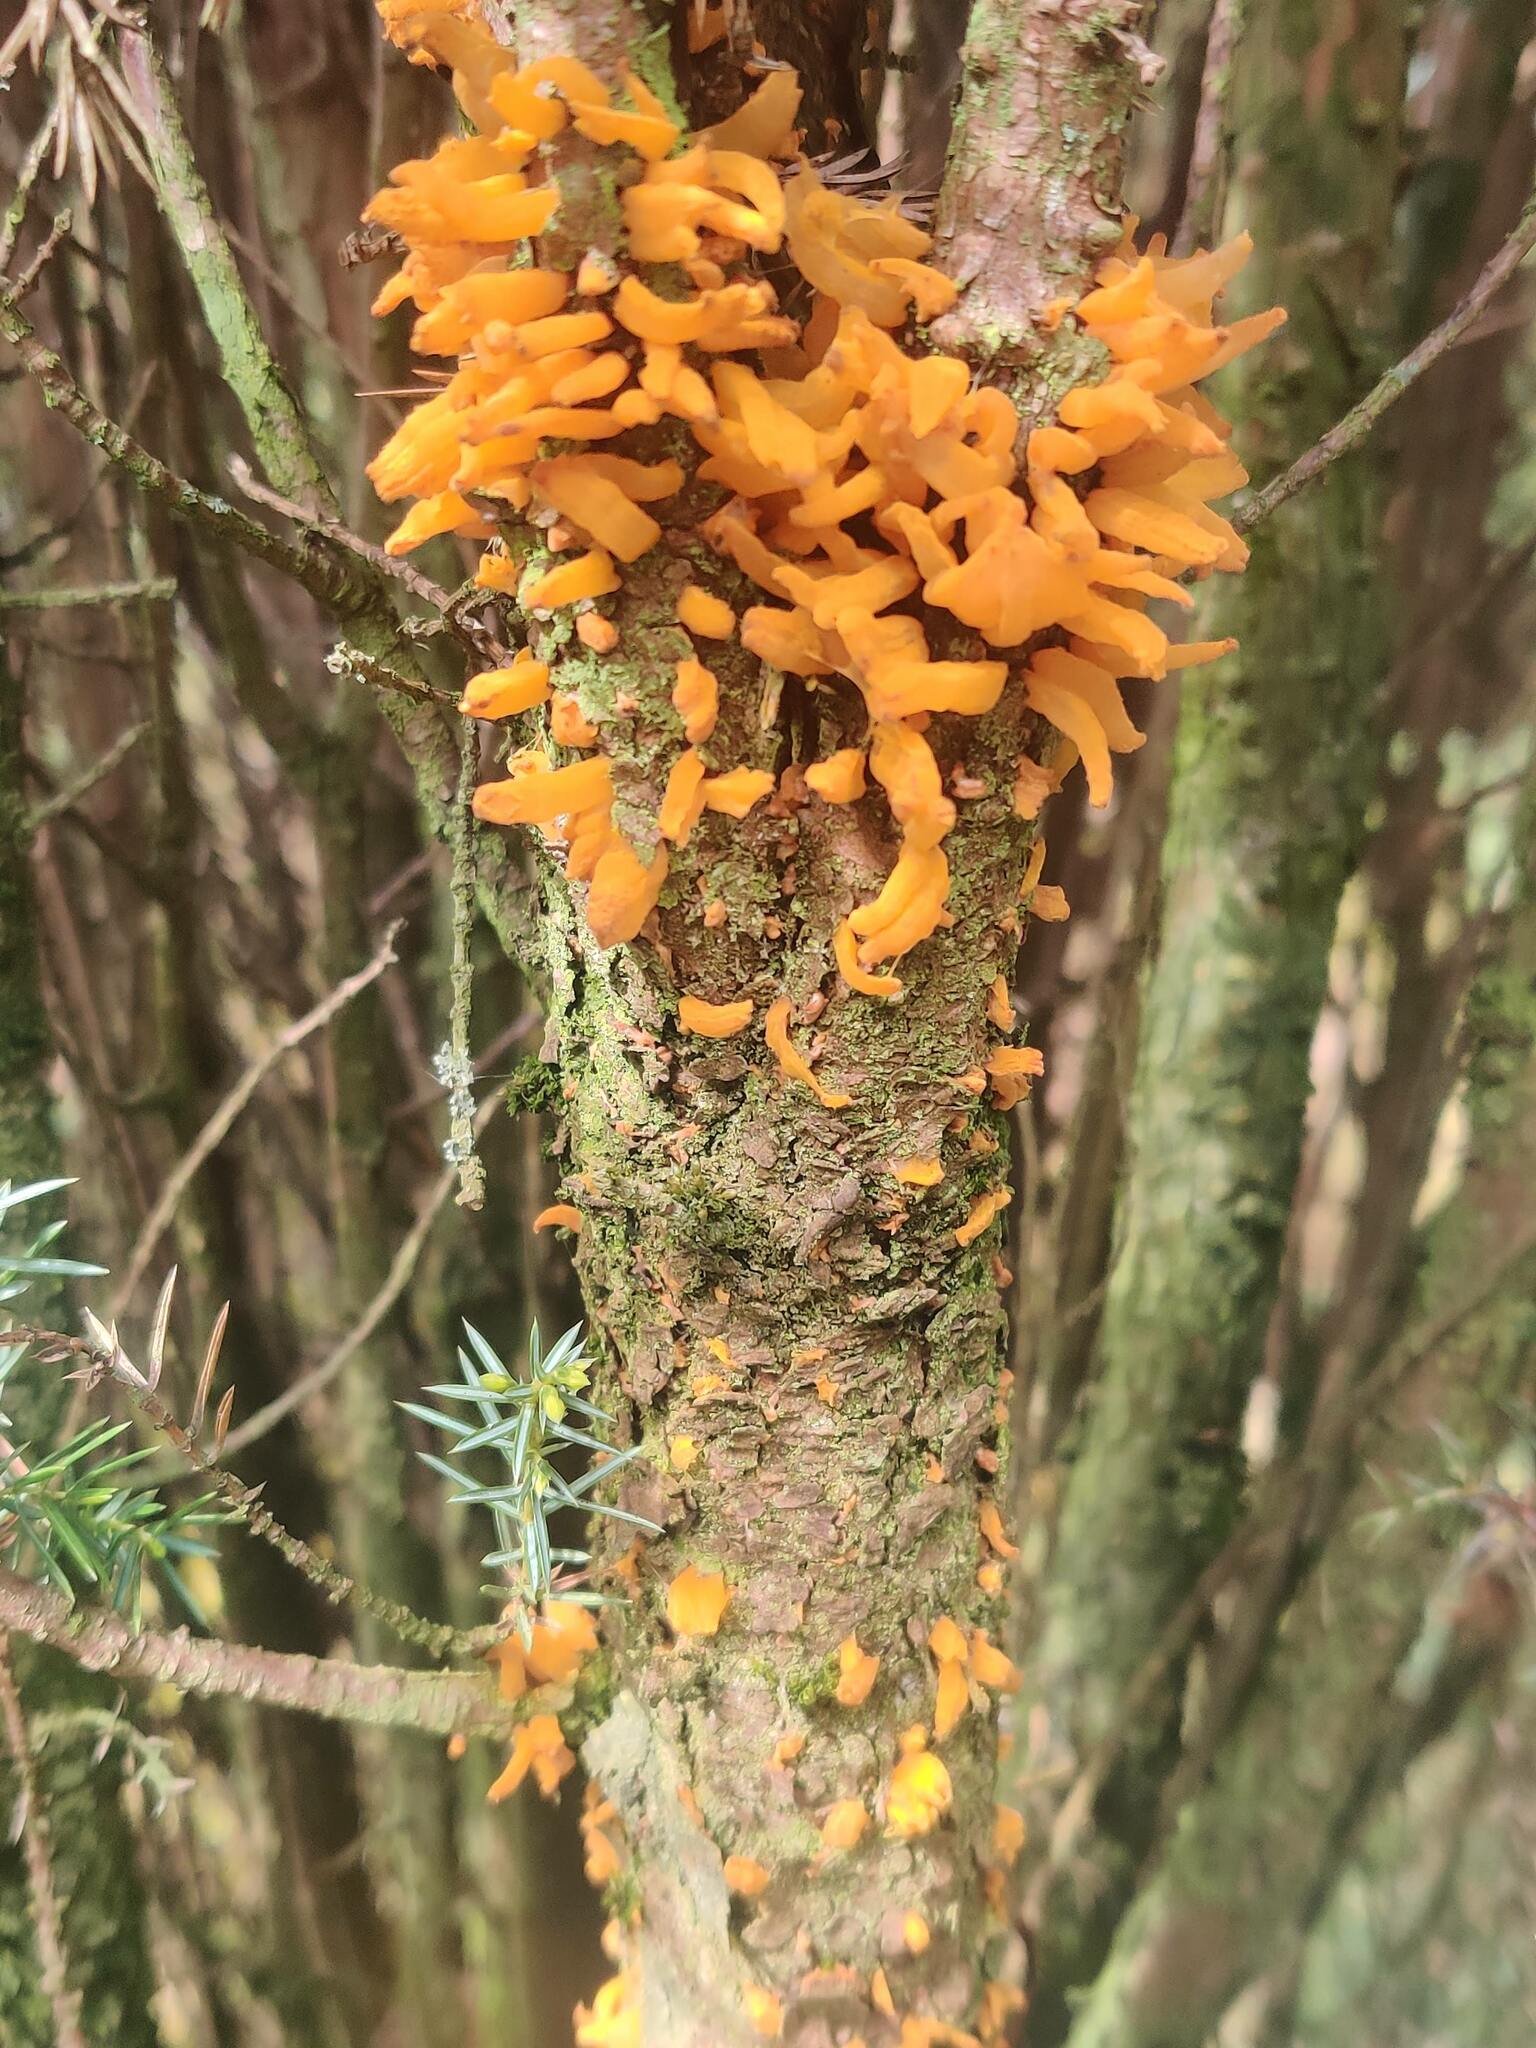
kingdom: Fungi
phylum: Basidiomycota
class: Pucciniomycetes
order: Pucciniales
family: Gymnosporangiaceae
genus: Gymnosporangium
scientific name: Gymnosporangium clavariiforme
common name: Tongues of fire
